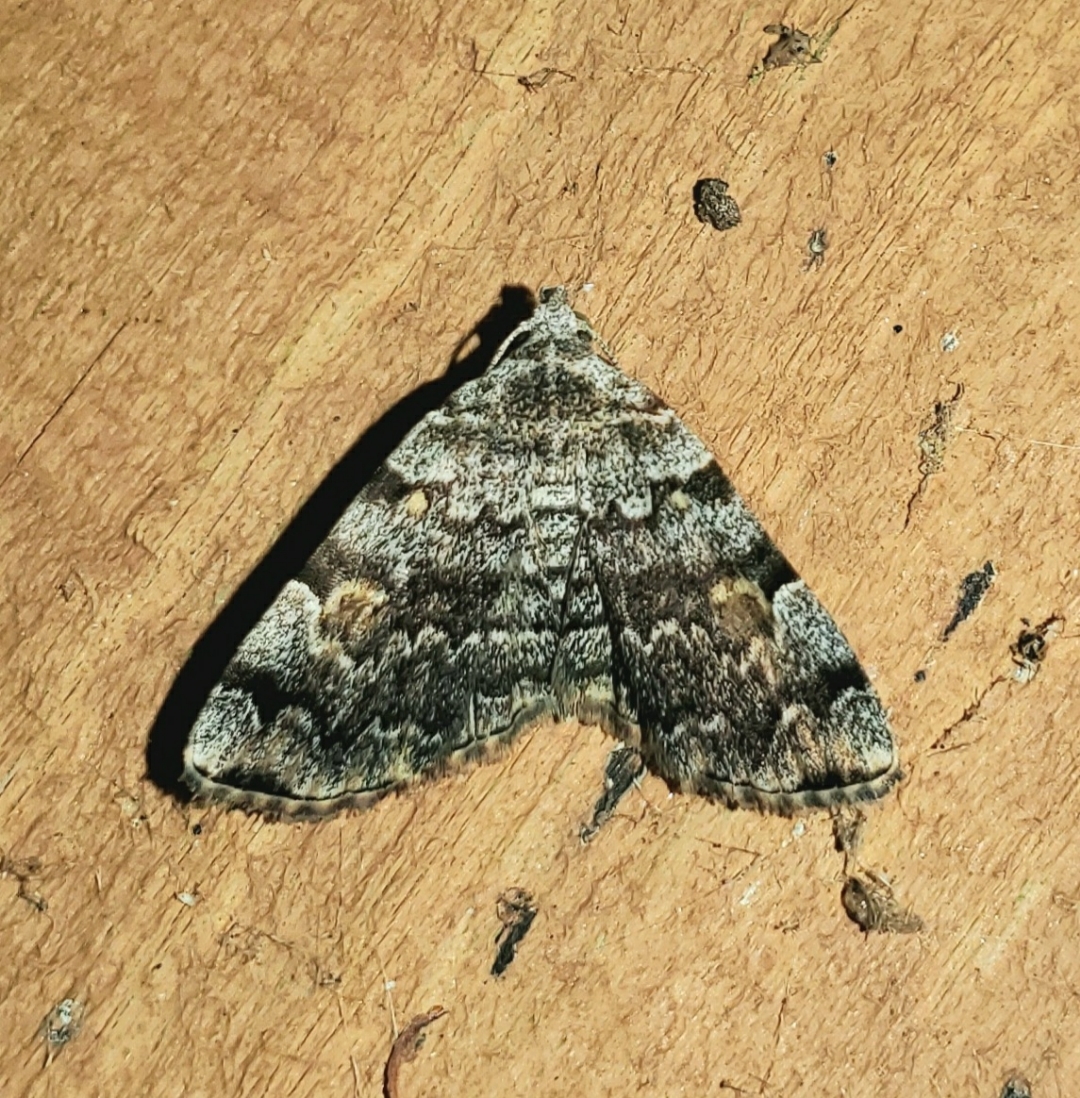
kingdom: Animalia
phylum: Arthropoda
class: Insecta
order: Lepidoptera
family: Erebidae
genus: Idia
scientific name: Idia americalis
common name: American idia moth
